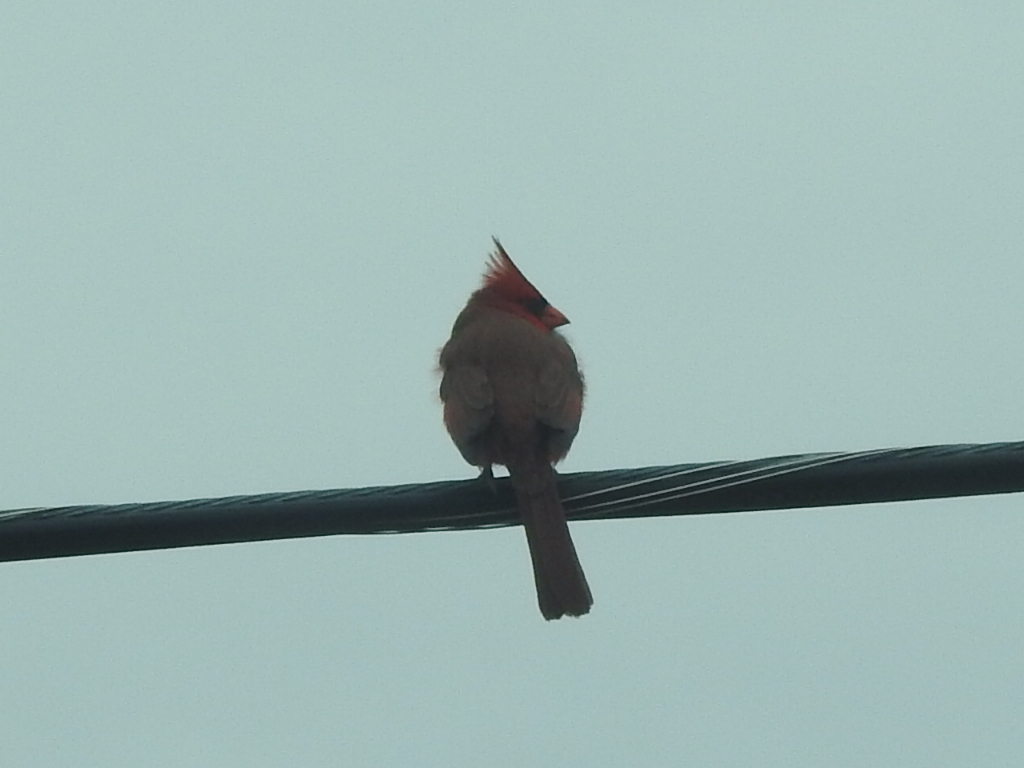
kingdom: Animalia
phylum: Chordata
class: Aves
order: Passeriformes
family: Cardinalidae
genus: Cardinalis
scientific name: Cardinalis cardinalis
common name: Northern cardinal
